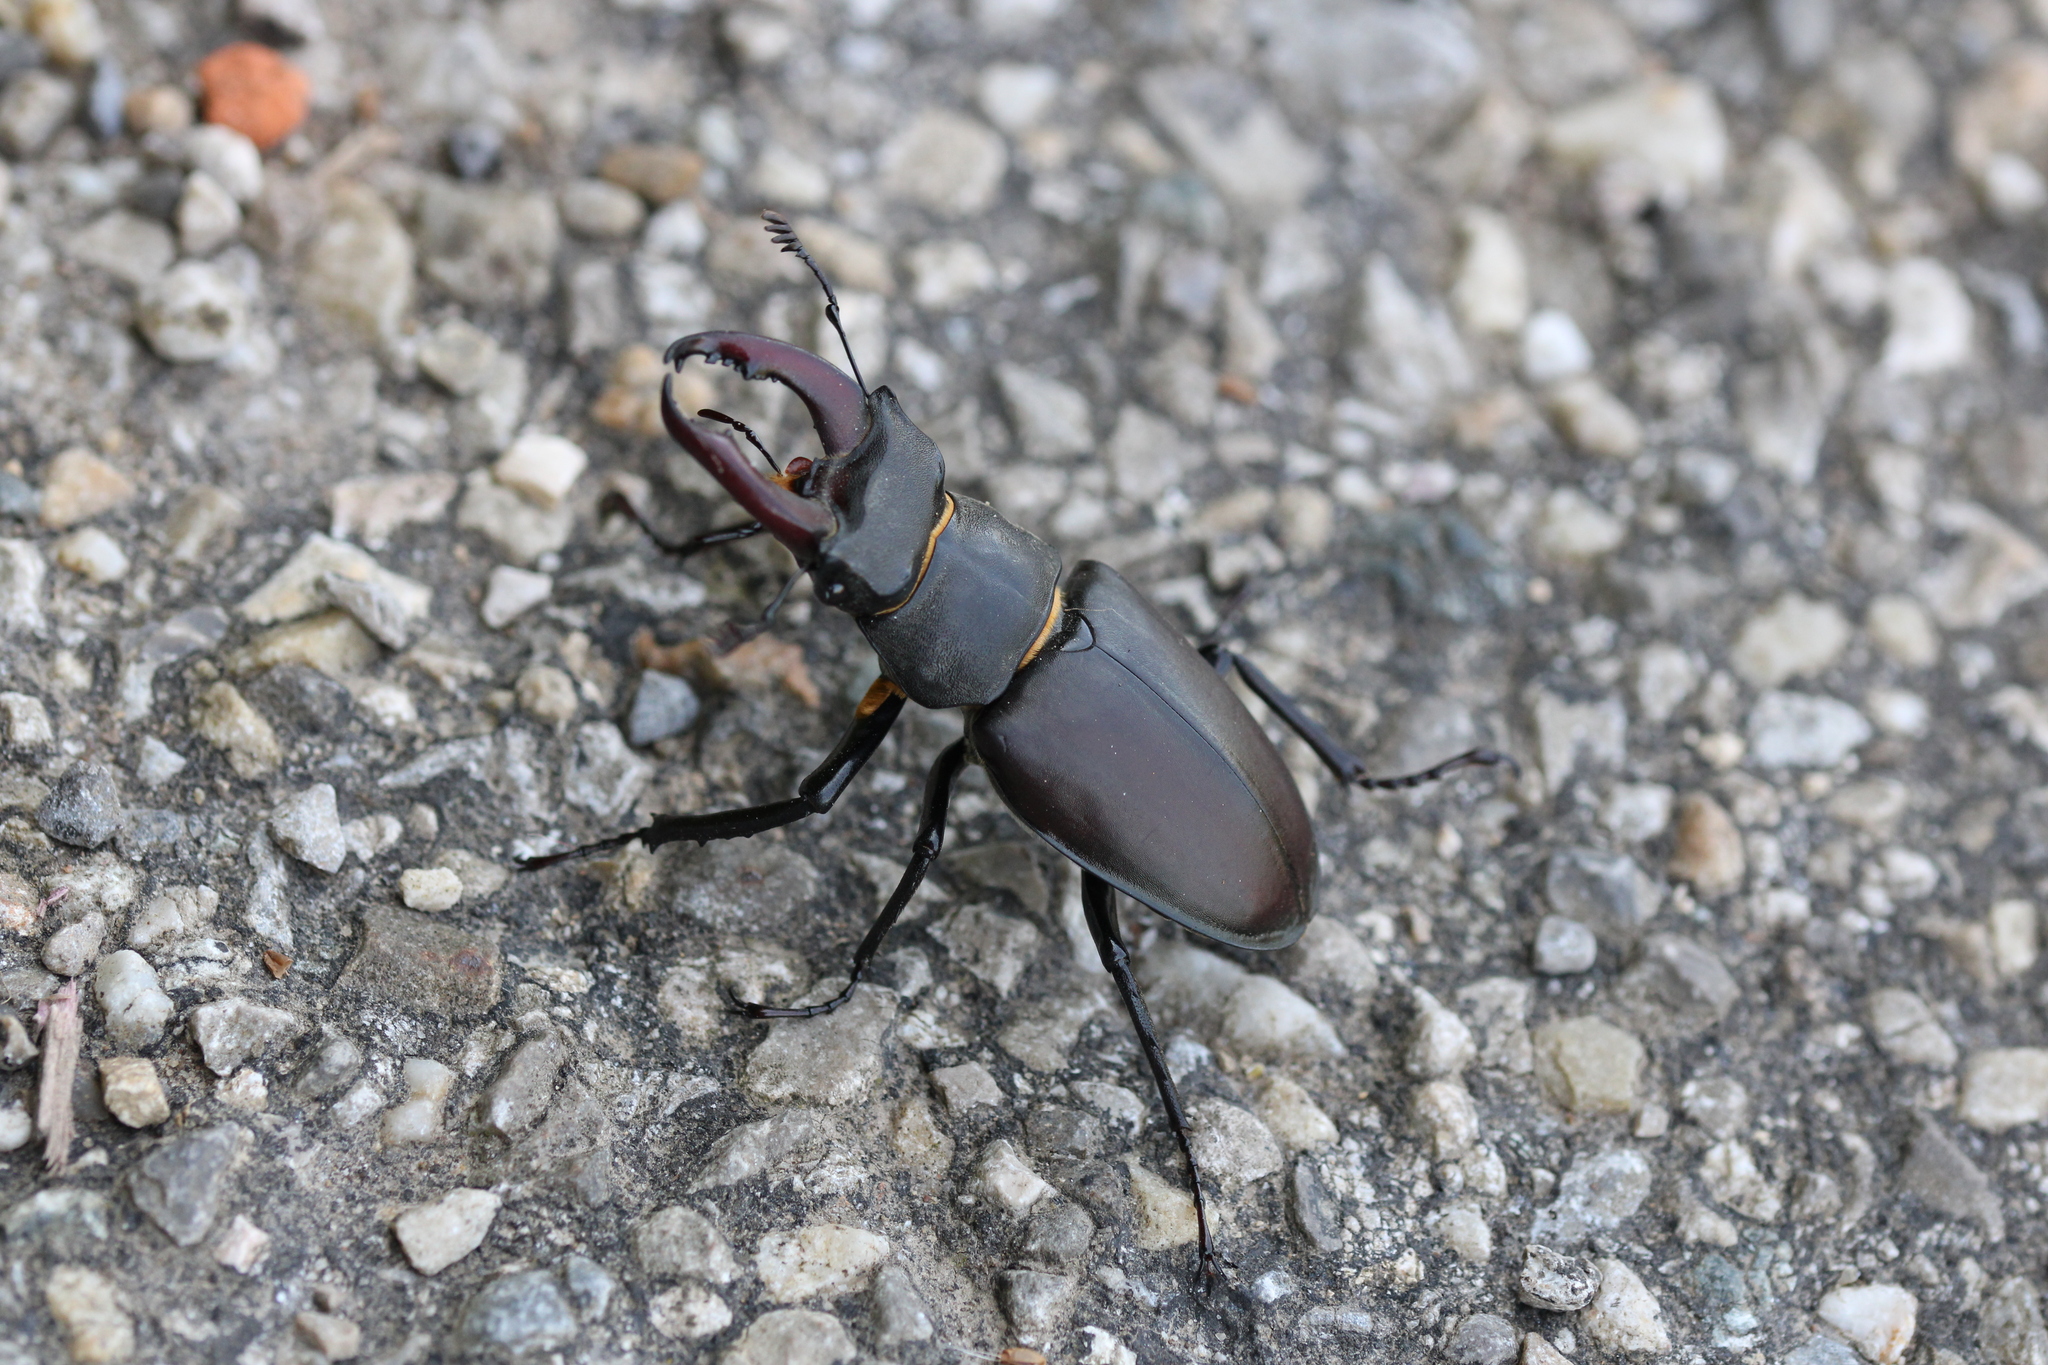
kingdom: Animalia
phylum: Arthropoda
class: Insecta
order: Coleoptera
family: Lucanidae
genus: Lucanus
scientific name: Lucanus cervus
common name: Stag beetle
